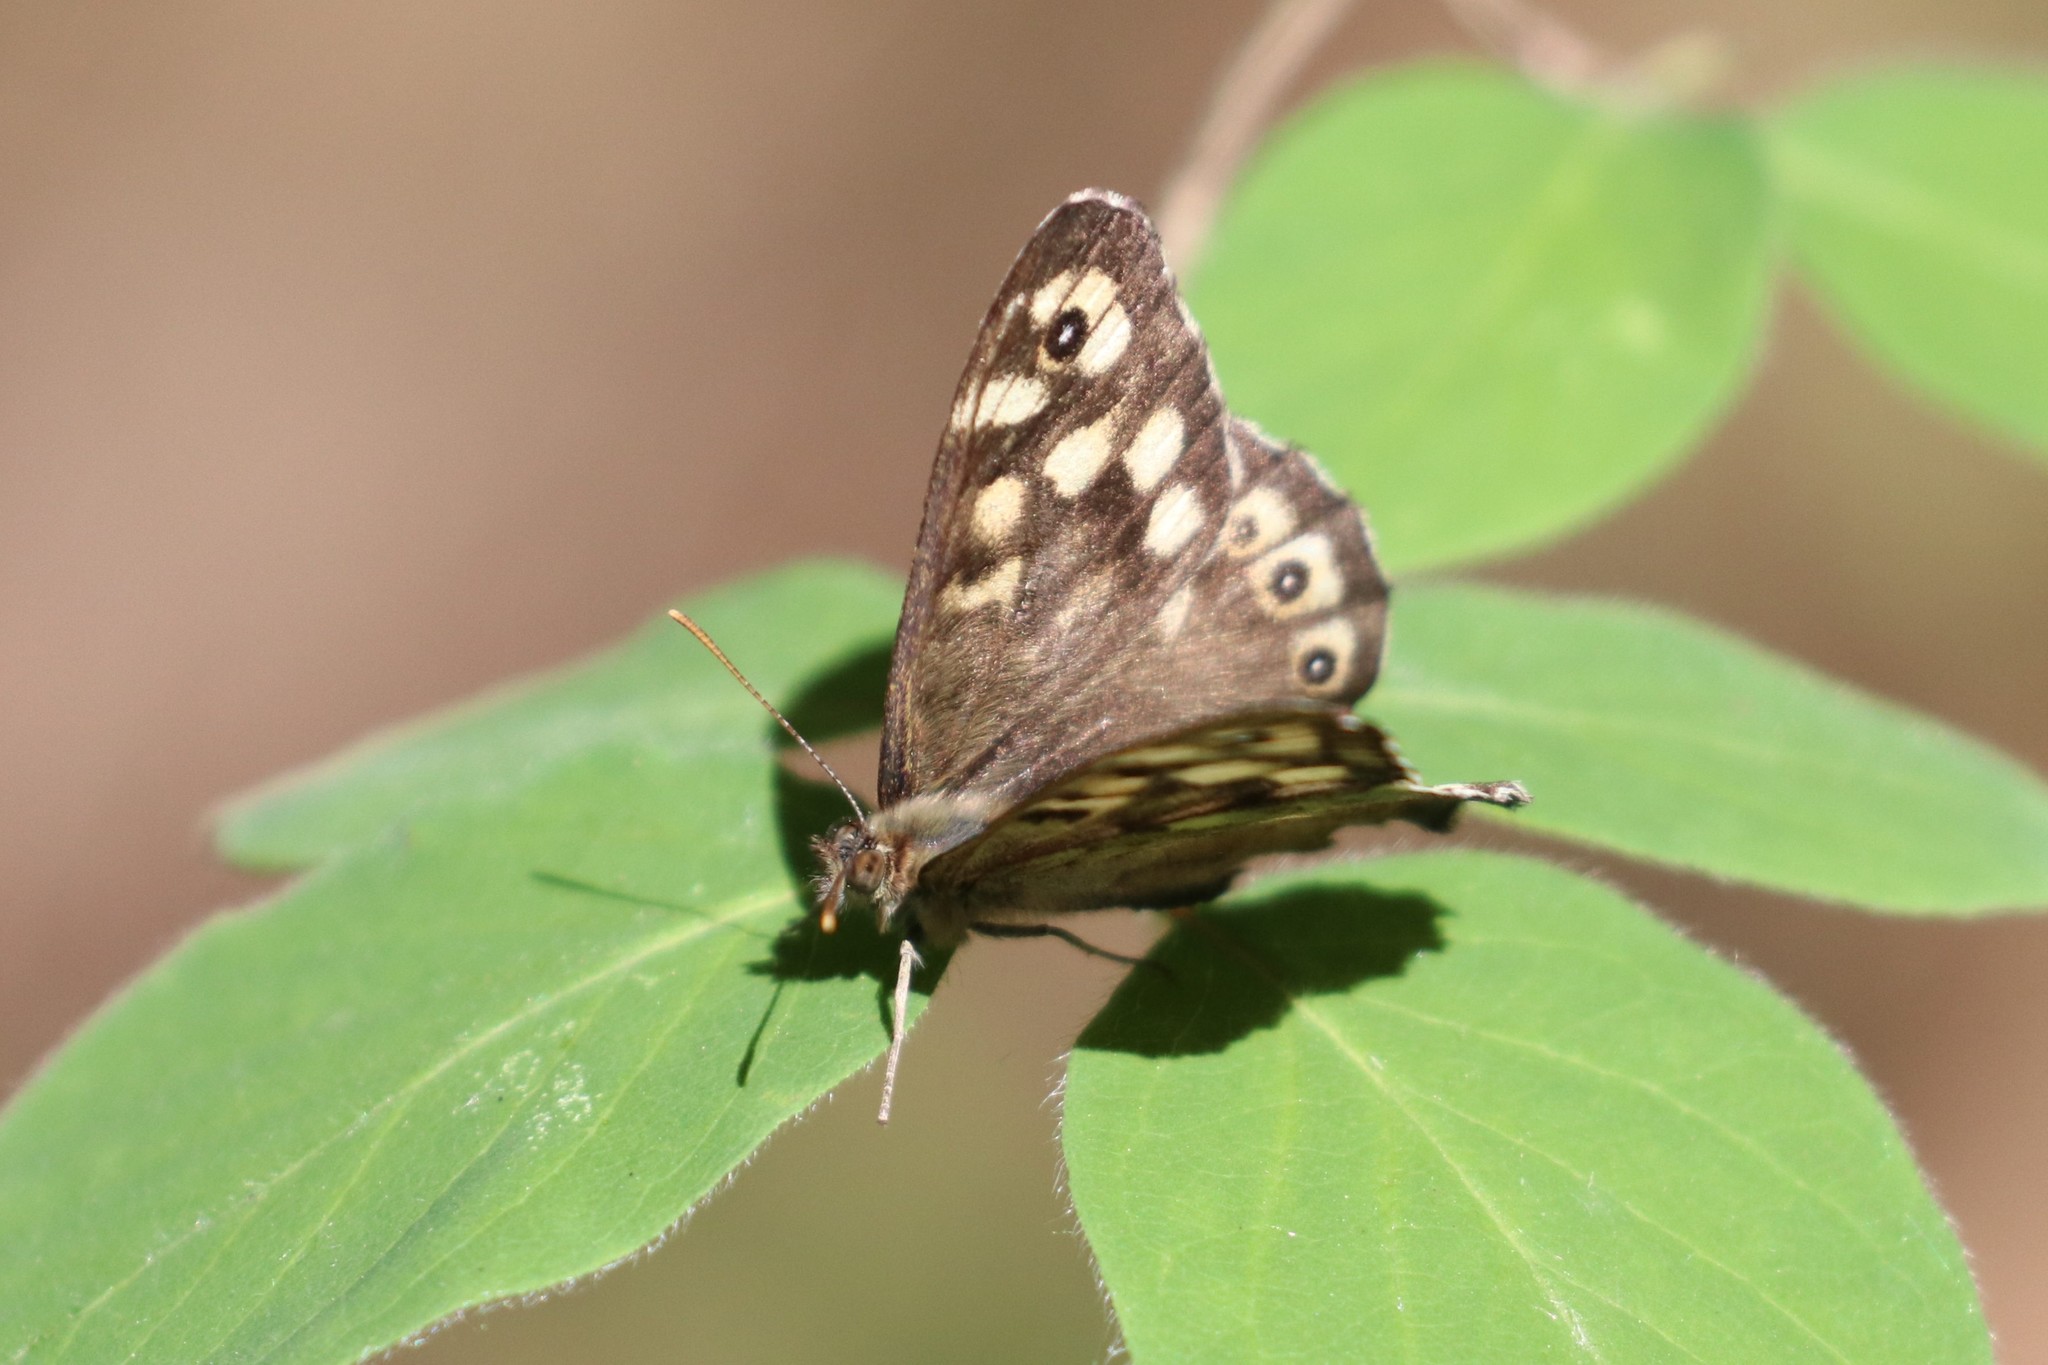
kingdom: Animalia
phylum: Arthropoda
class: Insecta
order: Lepidoptera
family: Nymphalidae
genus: Pararge
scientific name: Pararge aegeria
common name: Speckled wood
